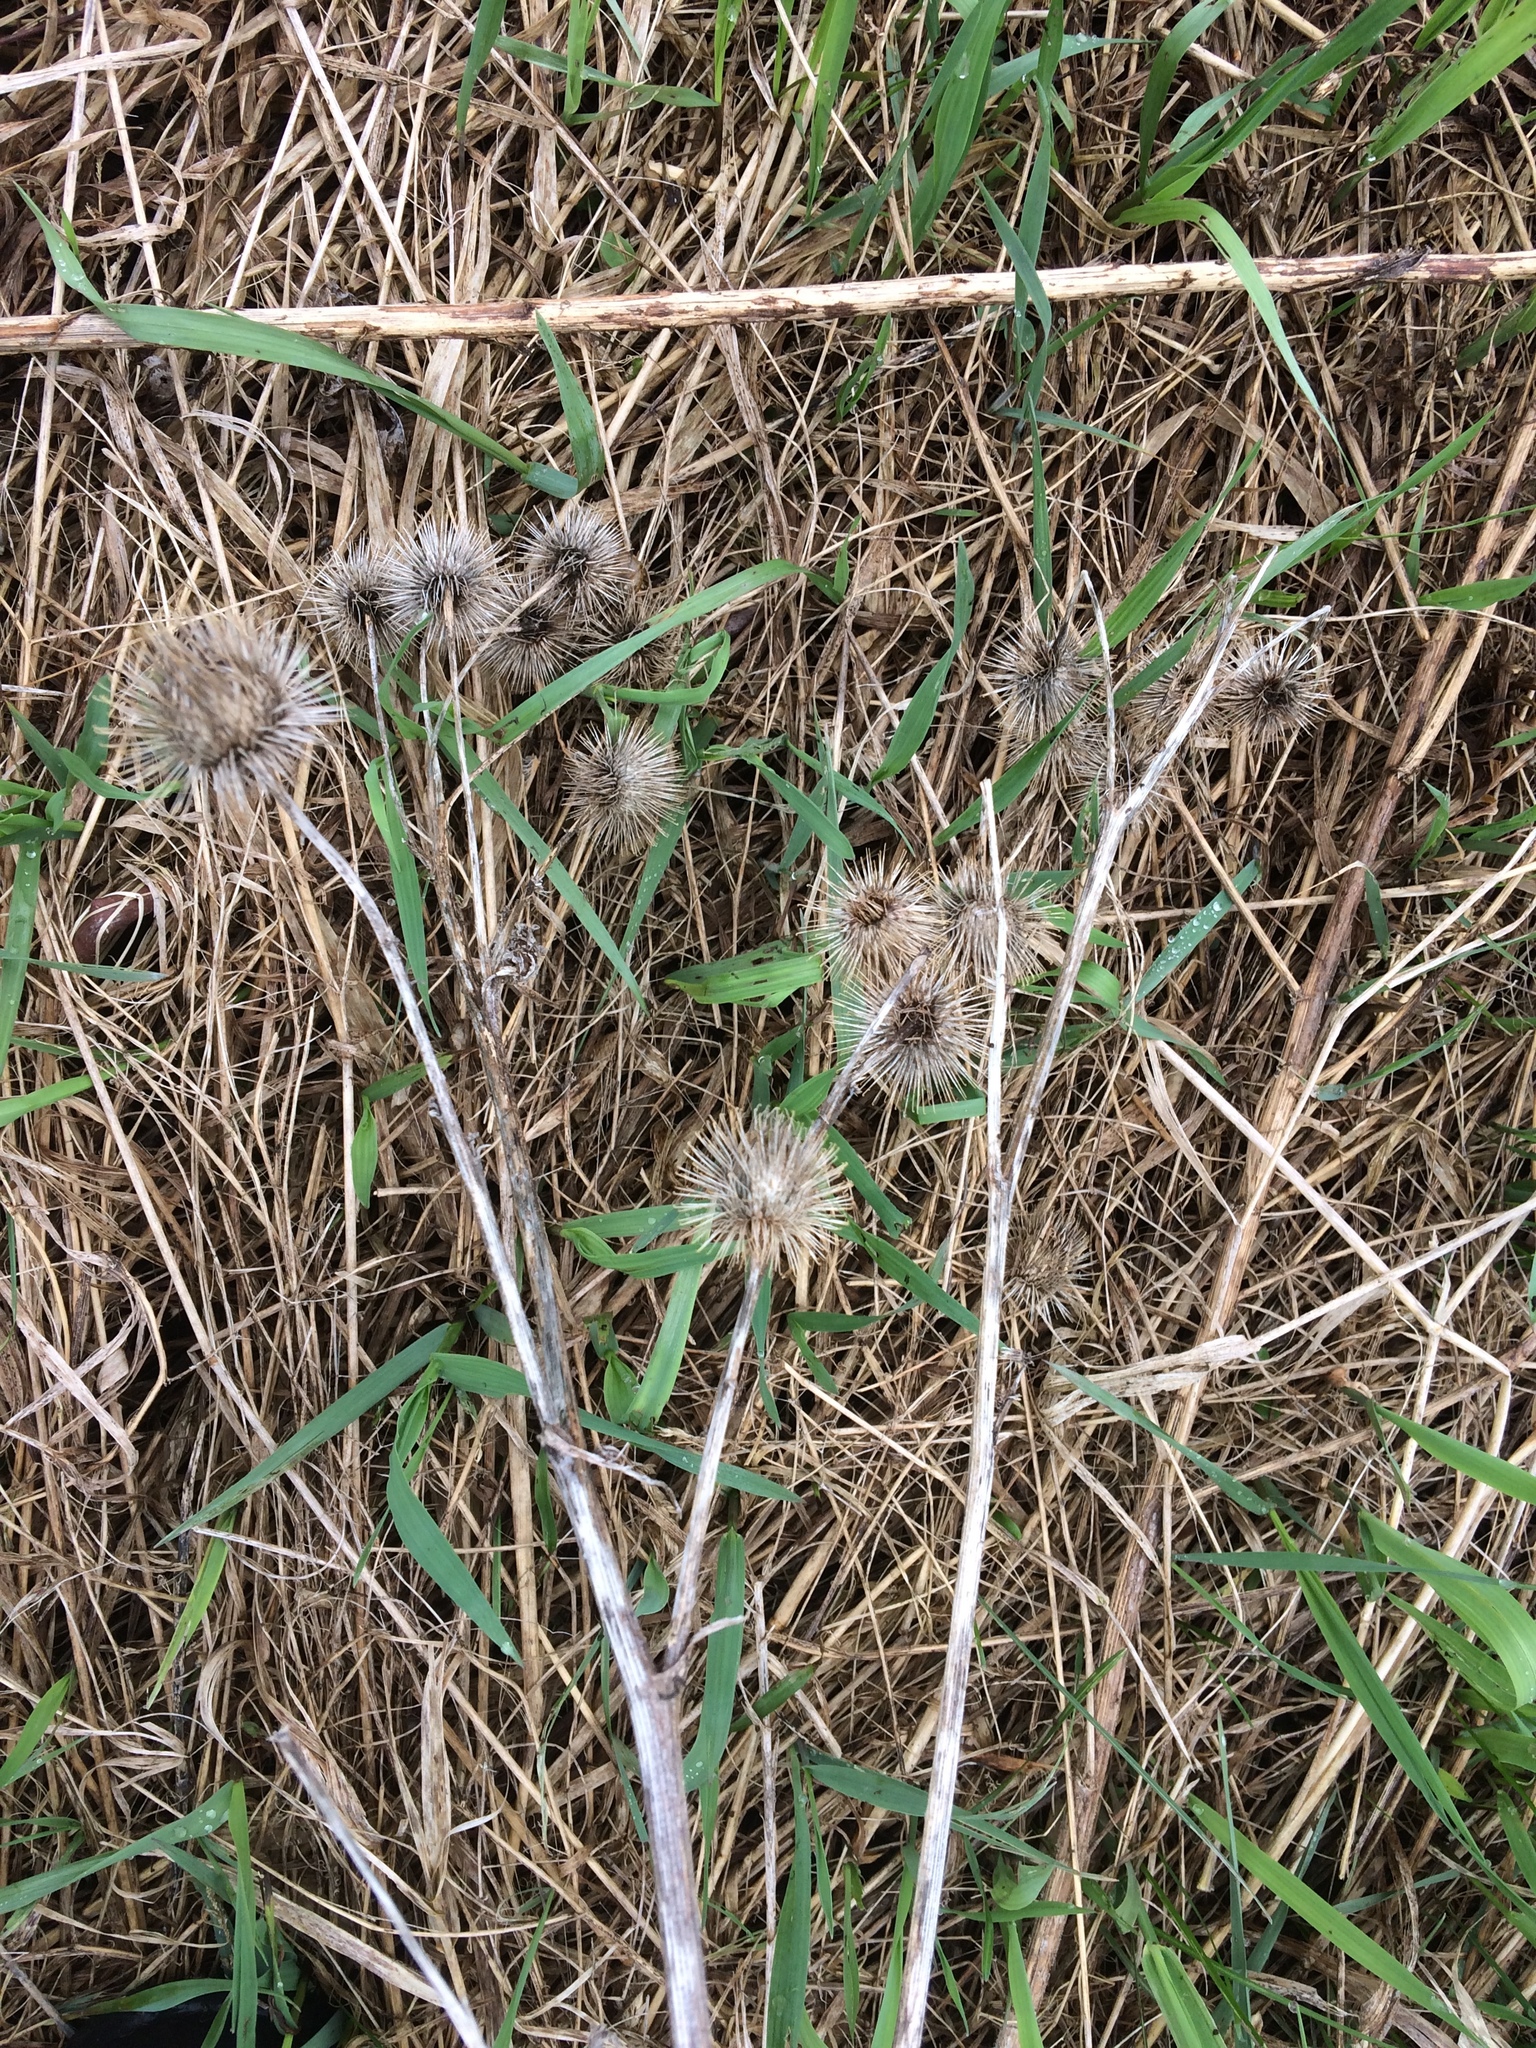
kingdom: Plantae
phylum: Tracheophyta
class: Magnoliopsida
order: Asterales
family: Asteraceae
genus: Arctium
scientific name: Arctium lappa
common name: Greater burdock
